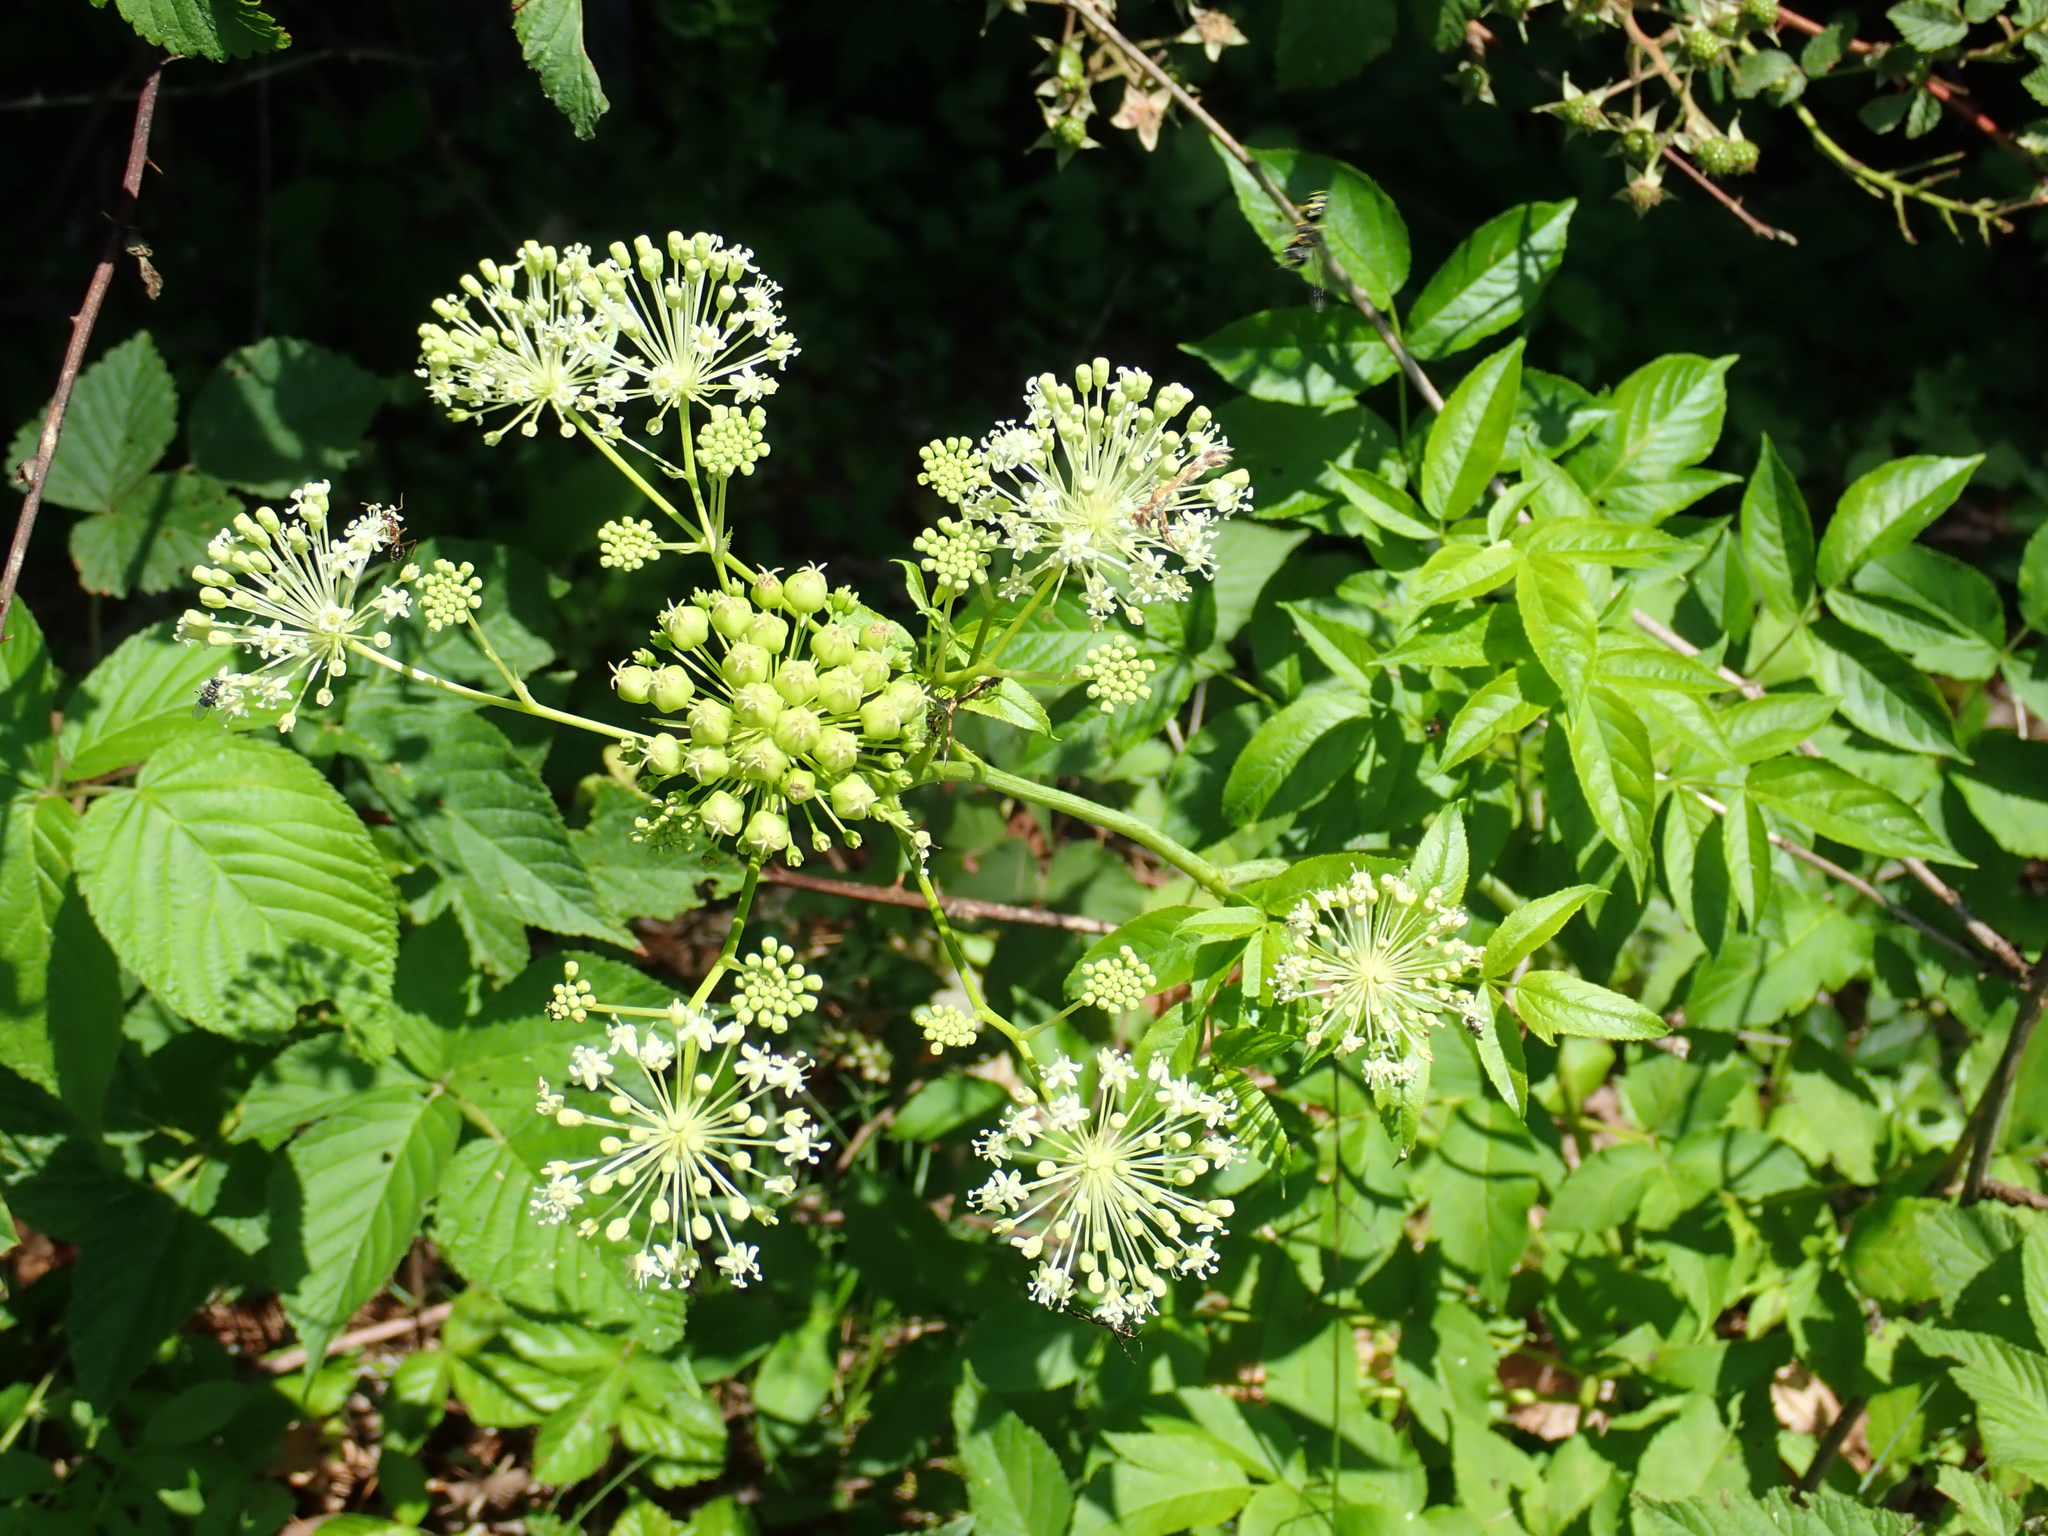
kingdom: Plantae
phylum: Tracheophyta
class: Magnoliopsida
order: Apiales
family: Araliaceae
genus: Aralia
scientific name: Aralia hispida
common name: Bristly sarsaparilla
